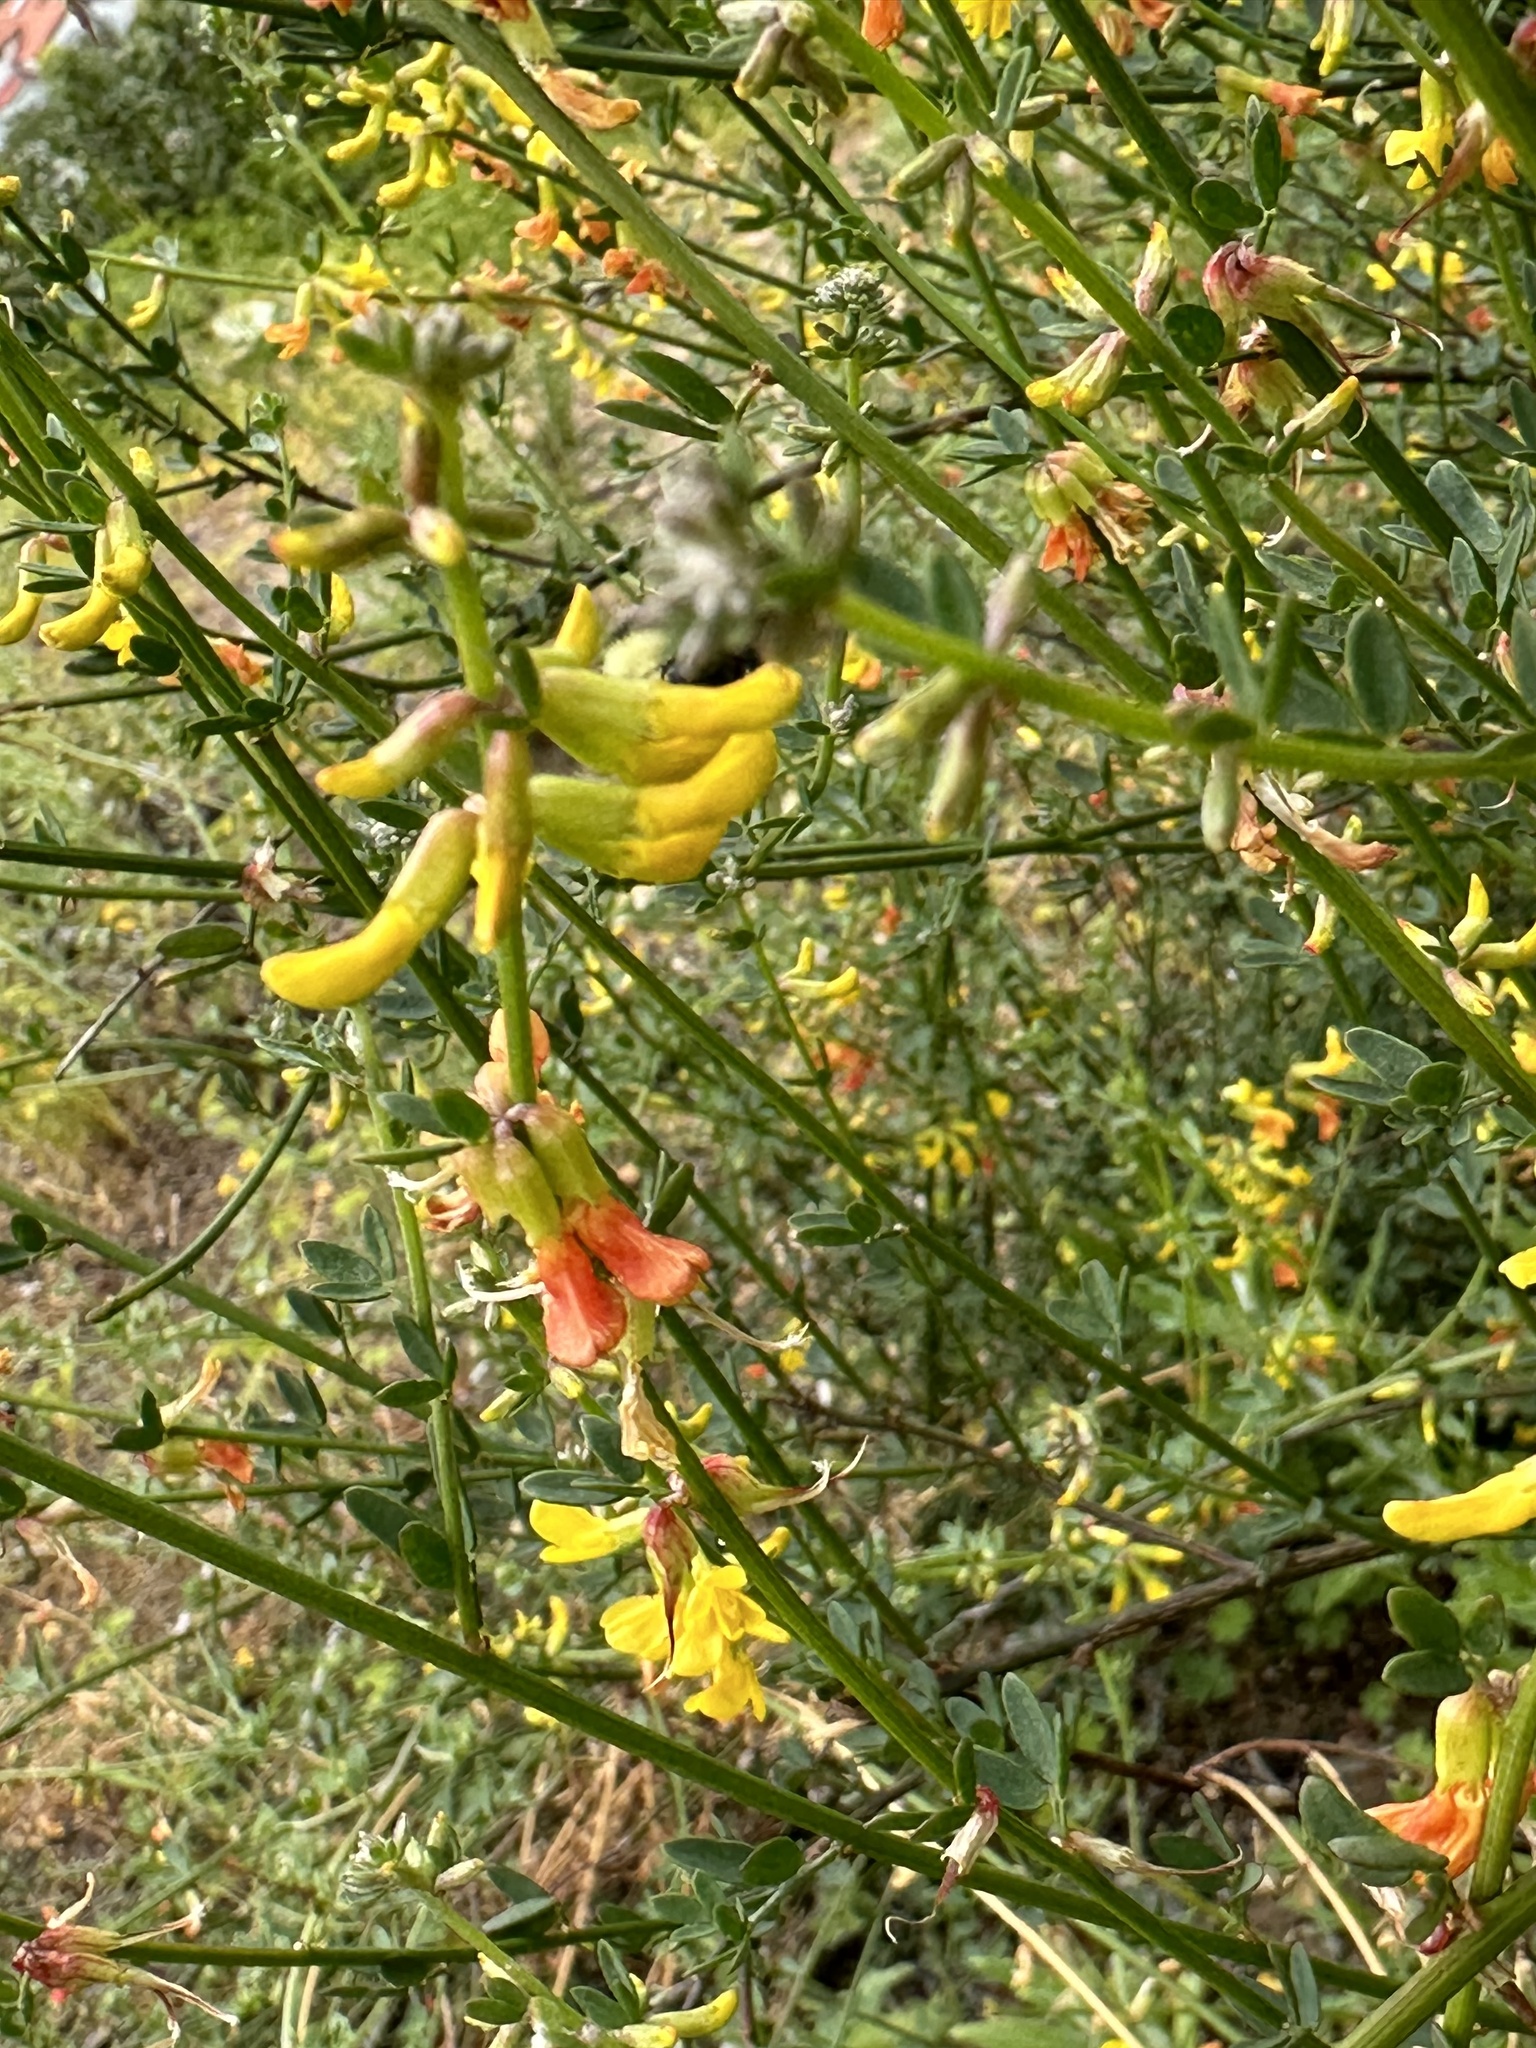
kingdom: Plantae
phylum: Tracheophyta
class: Magnoliopsida
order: Fabales
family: Fabaceae
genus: Acmispon
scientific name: Acmispon glaber
